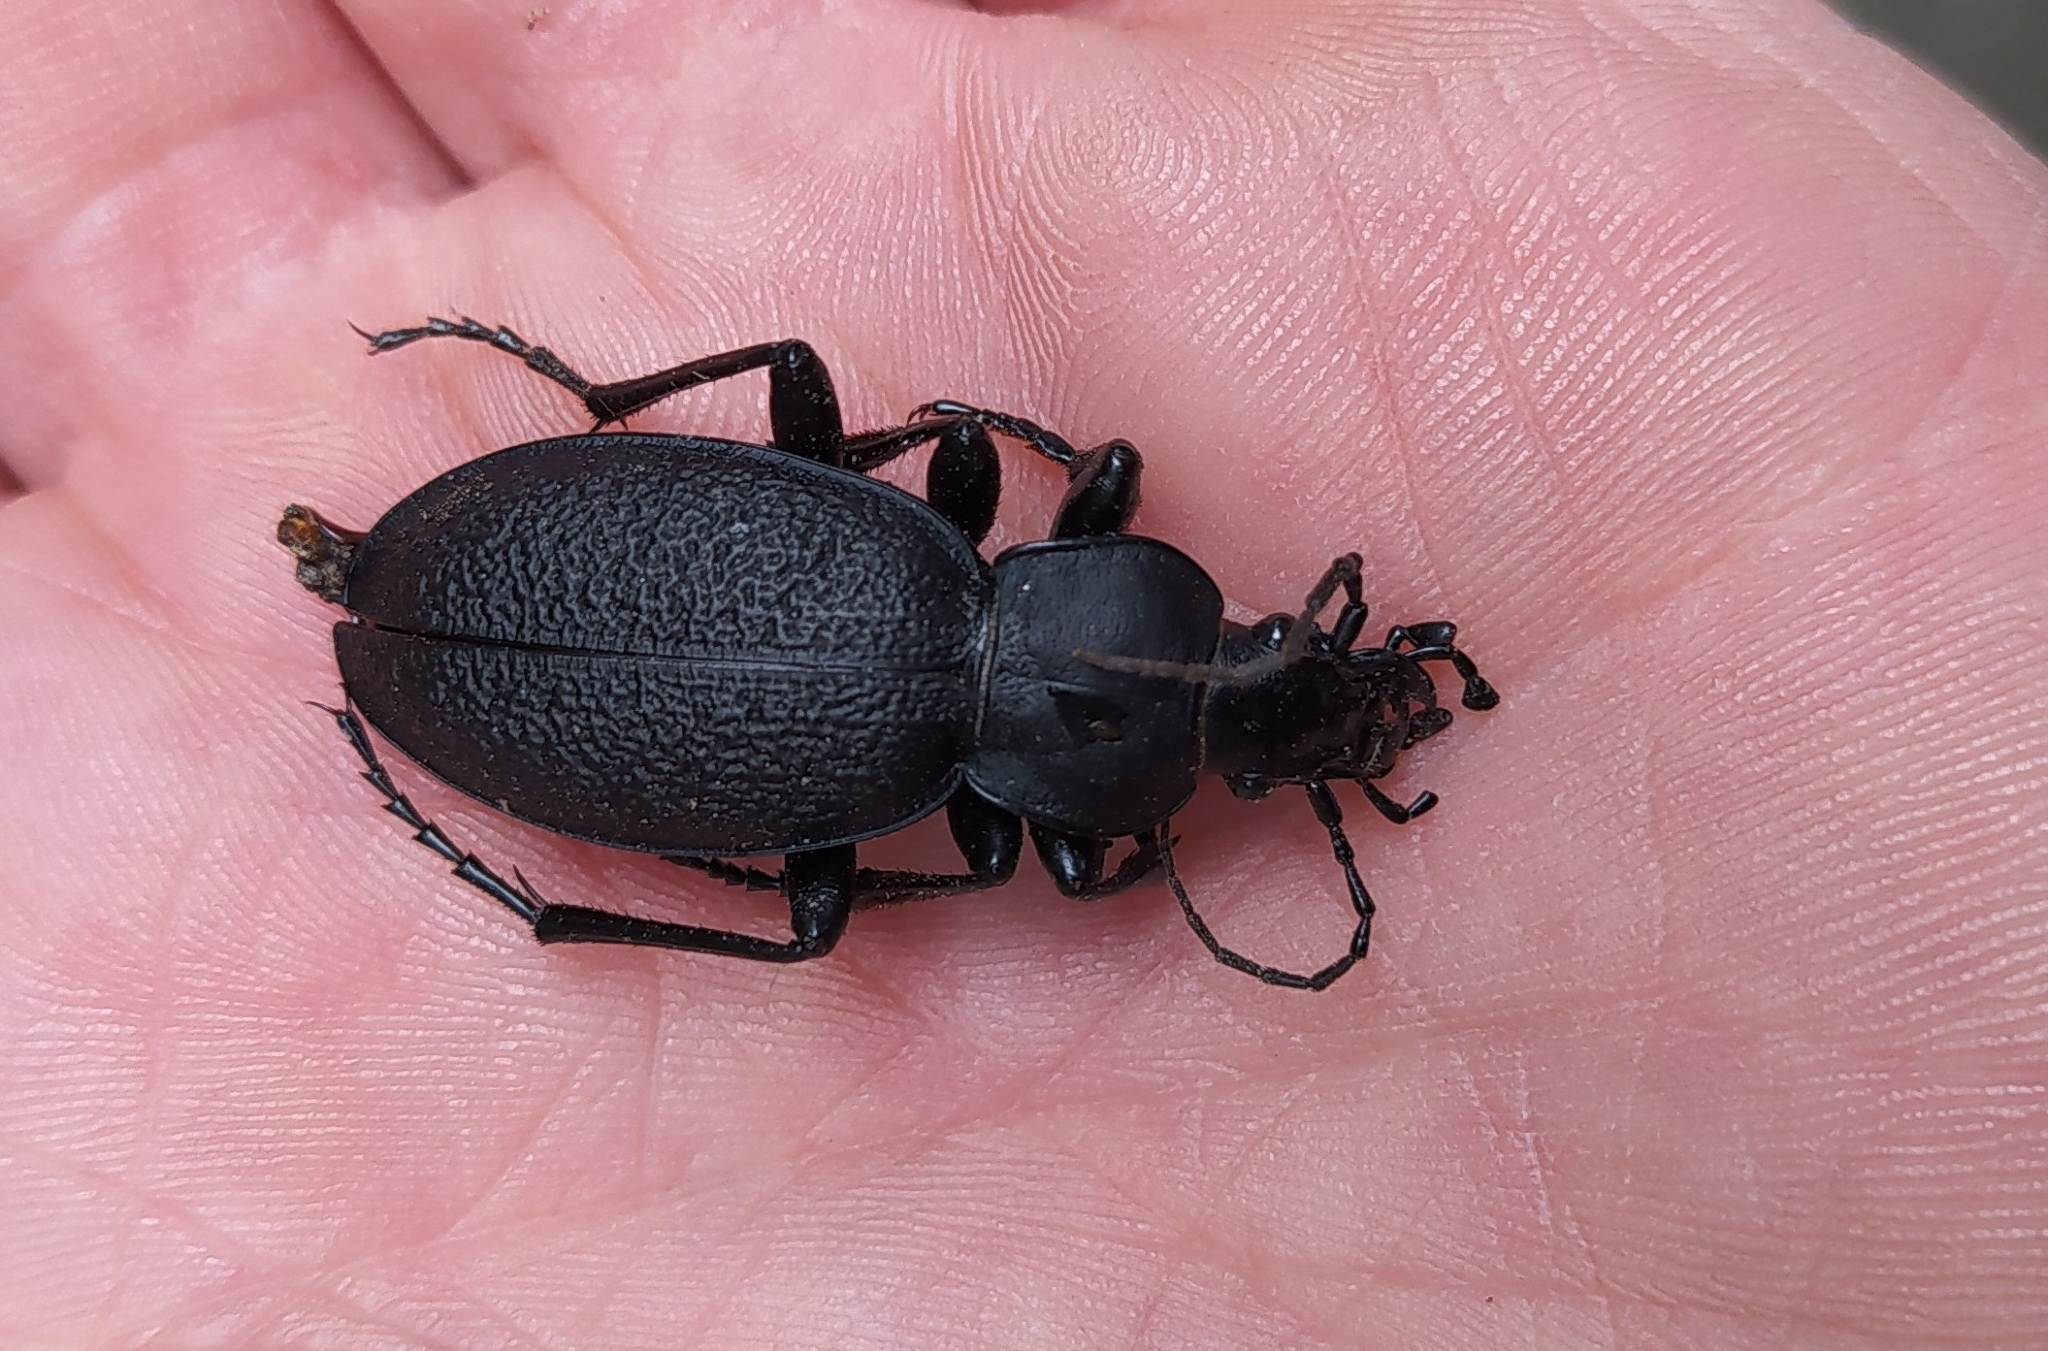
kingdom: Animalia
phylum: Arthropoda
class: Insecta
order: Coleoptera
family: Carabidae
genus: Carabus
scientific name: Carabus coriaceus
